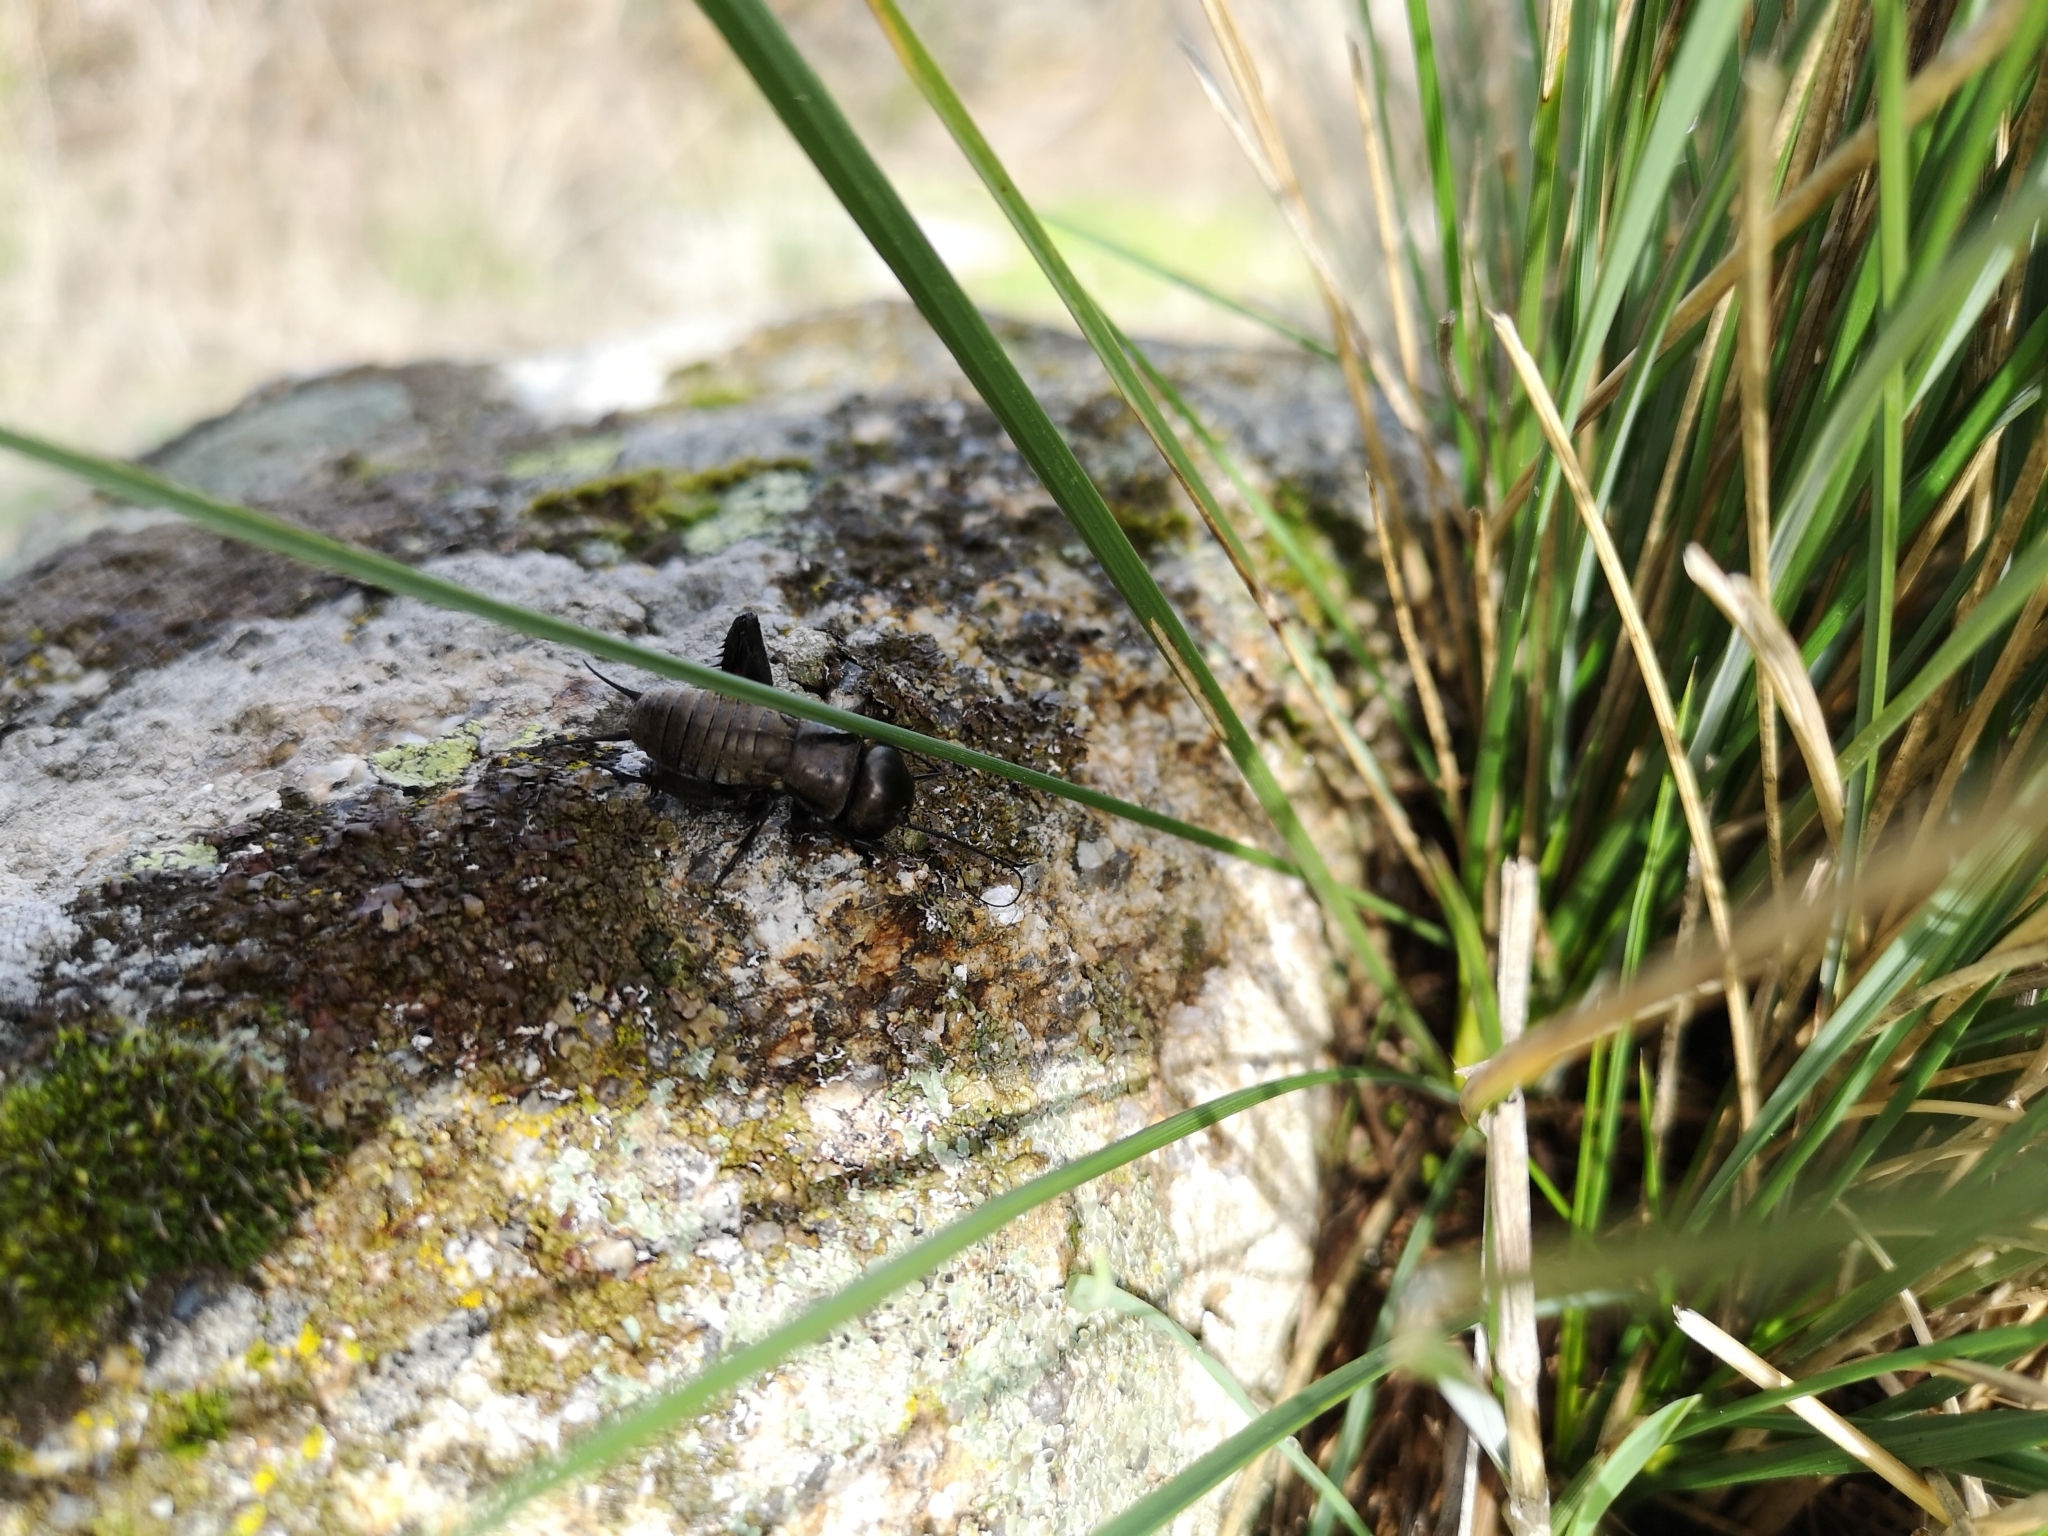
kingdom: Animalia
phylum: Arthropoda
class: Insecta
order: Orthoptera
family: Gryllidae
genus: Gryllus
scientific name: Gryllus campestris
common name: Field cricket
